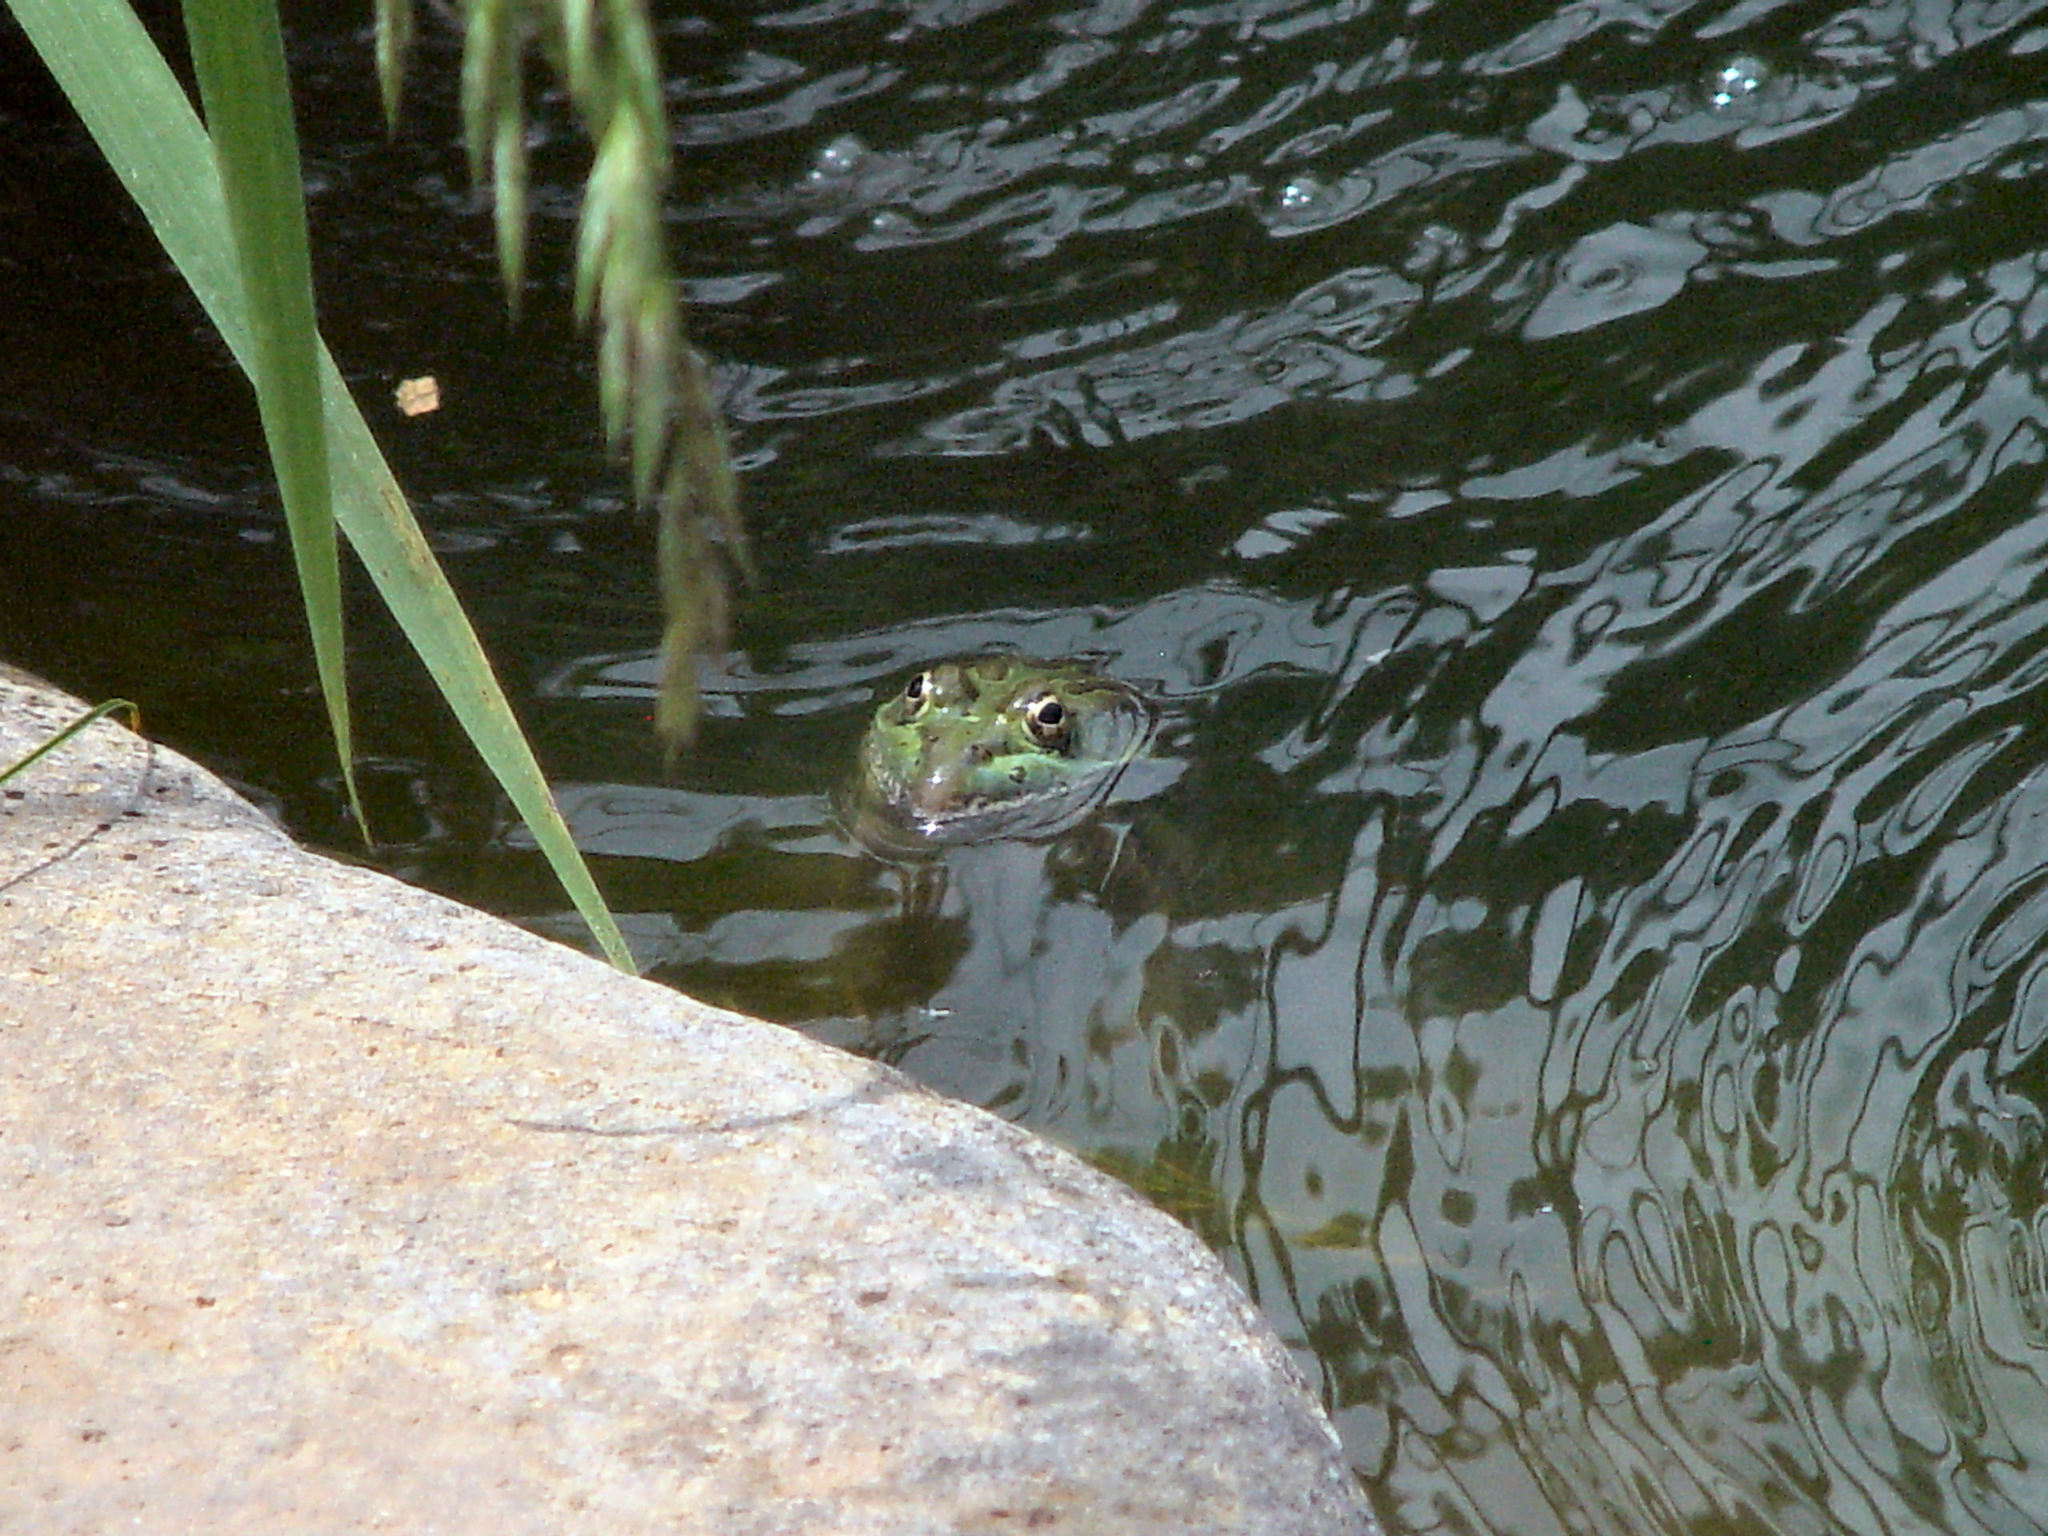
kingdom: Animalia
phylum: Chordata
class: Amphibia
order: Anura
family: Ranidae
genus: Lithobates
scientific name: Lithobates chiricahuensis
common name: Chiricahua leopard frog
